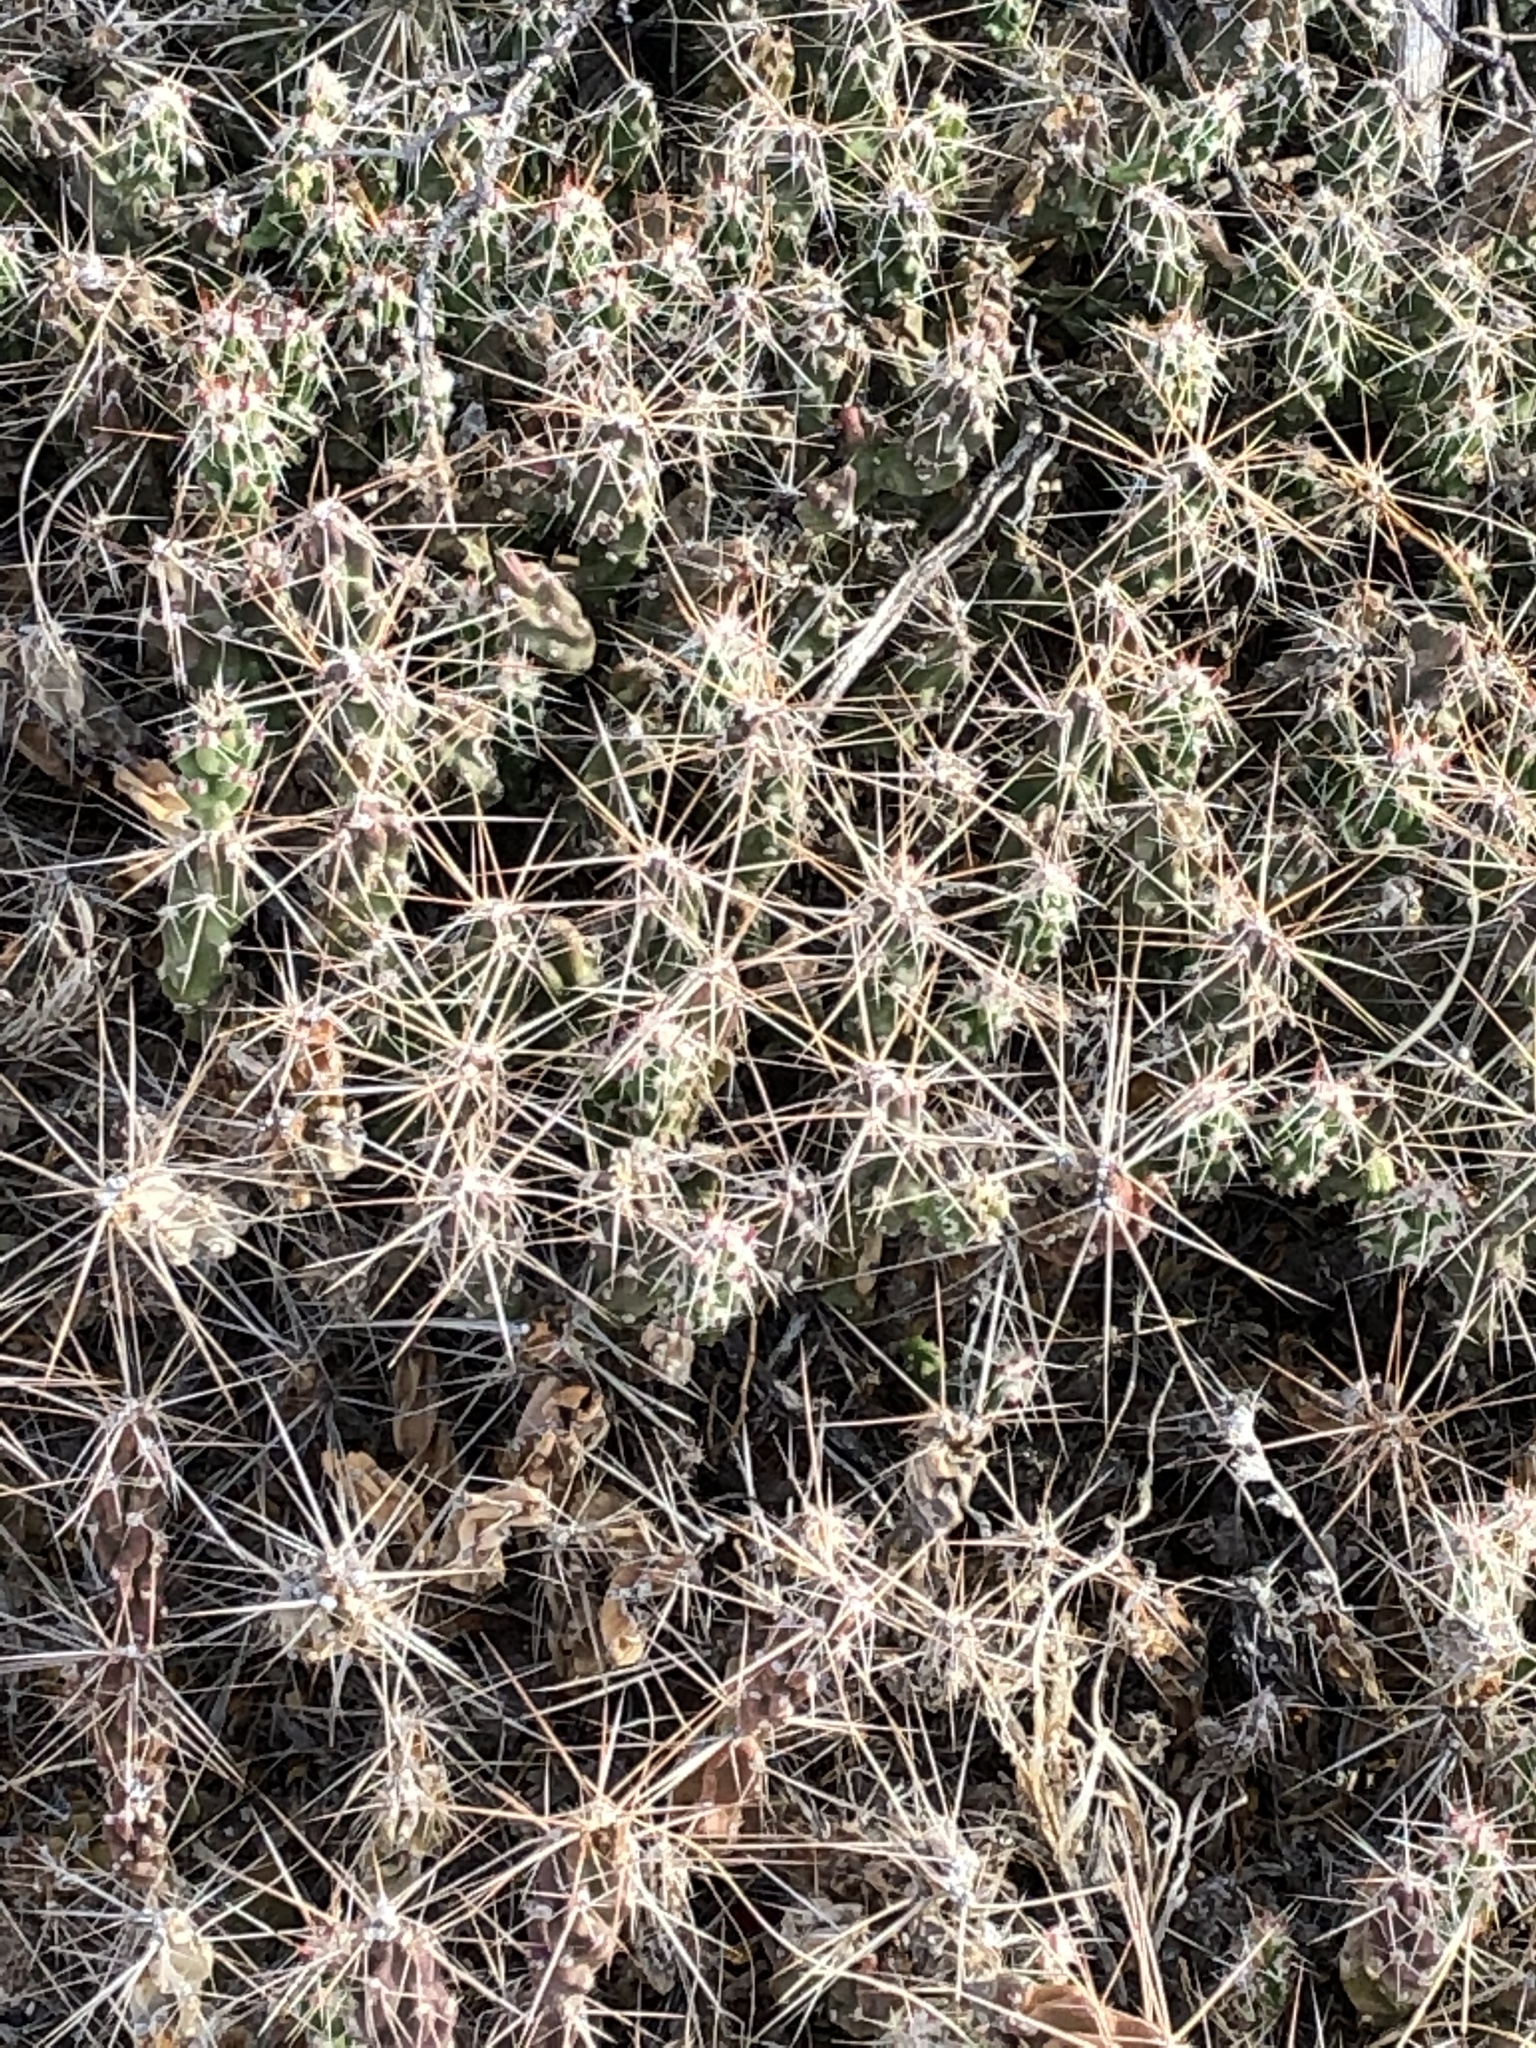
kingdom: Plantae
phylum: Tracheophyta
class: Magnoliopsida
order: Caryophyllales
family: Cactaceae
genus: Grusonia
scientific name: Grusonia aggeria
